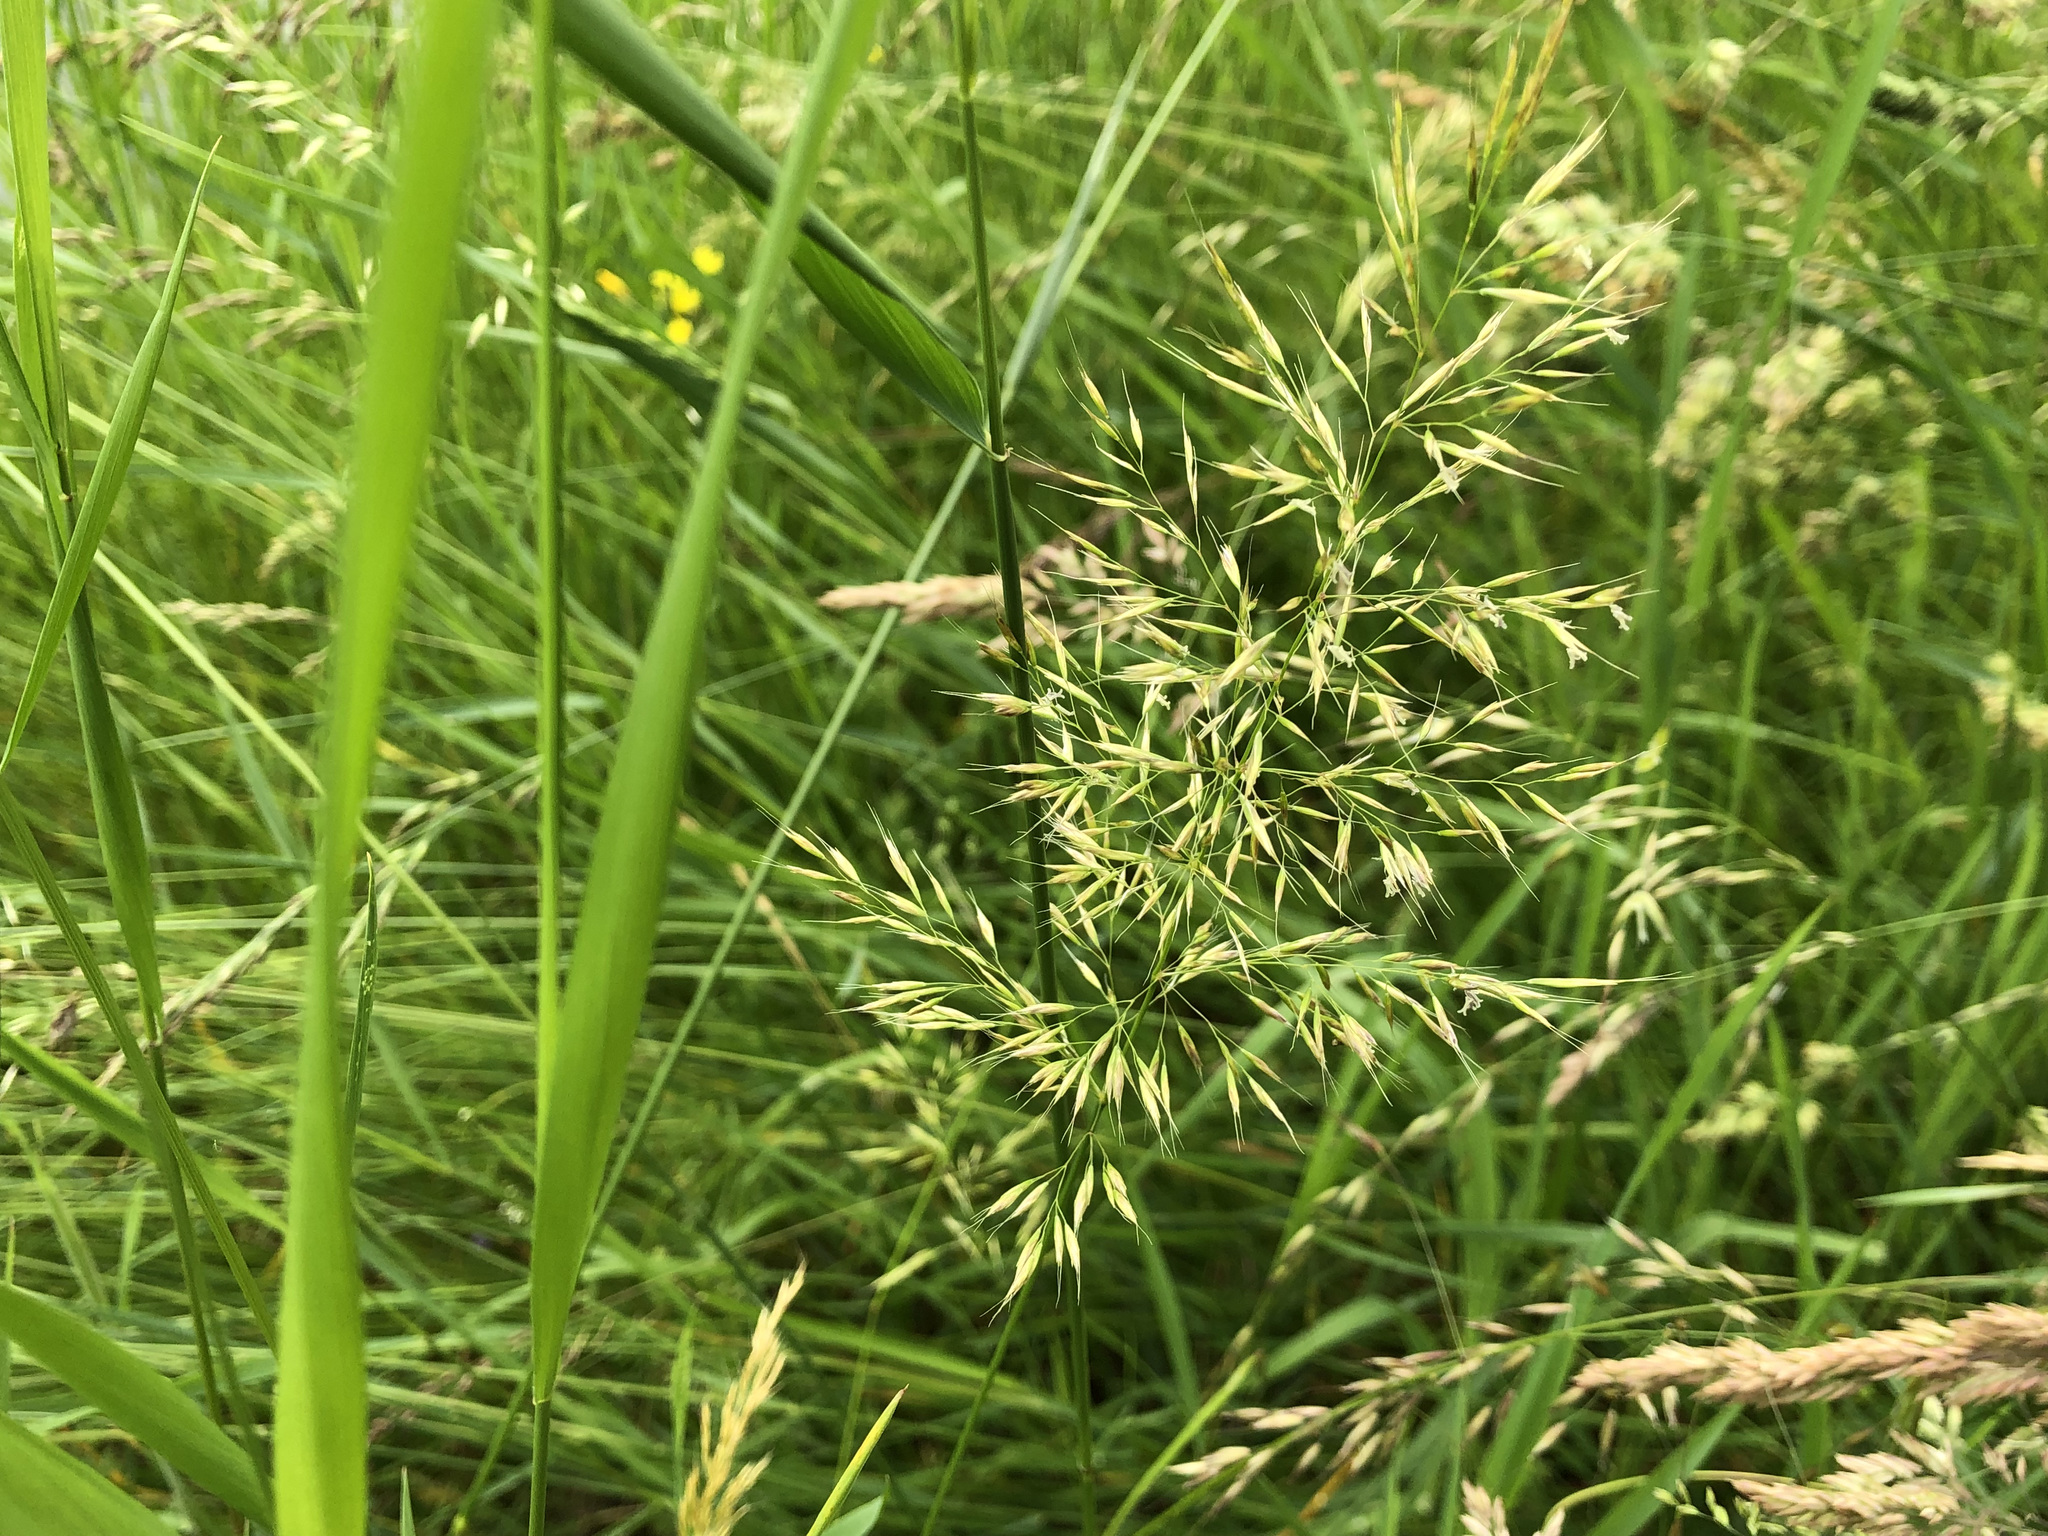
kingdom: Plantae
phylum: Tracheophyta
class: Liliopsida
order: Poales
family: Poaceae
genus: Trisetum
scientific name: Trisetum flavescens
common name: Yellow oat-grass
